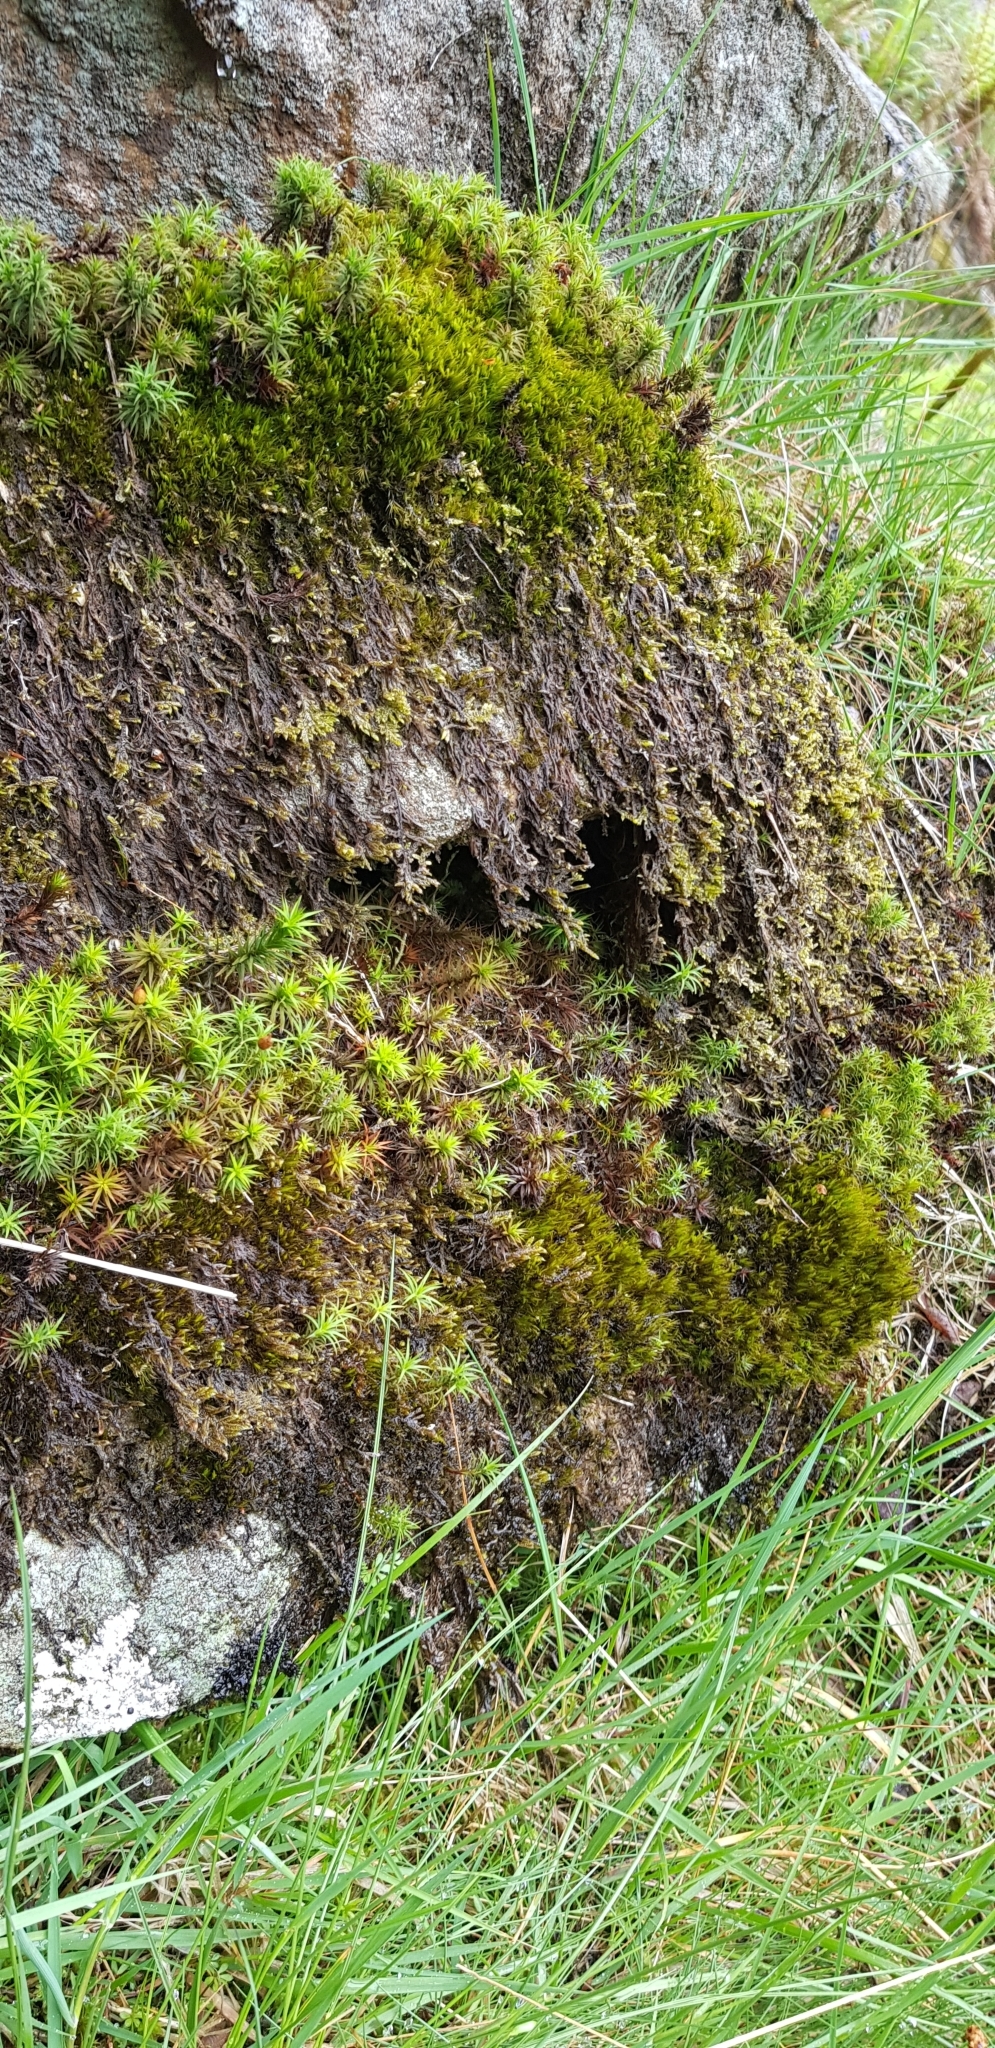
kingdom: Plantae
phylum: Marchantiophyta
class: Jungermanniopsida
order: Jungermanniales
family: Scapaniaceae
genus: Diplophyllum
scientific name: Diplophyllum albicans
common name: White earwort
